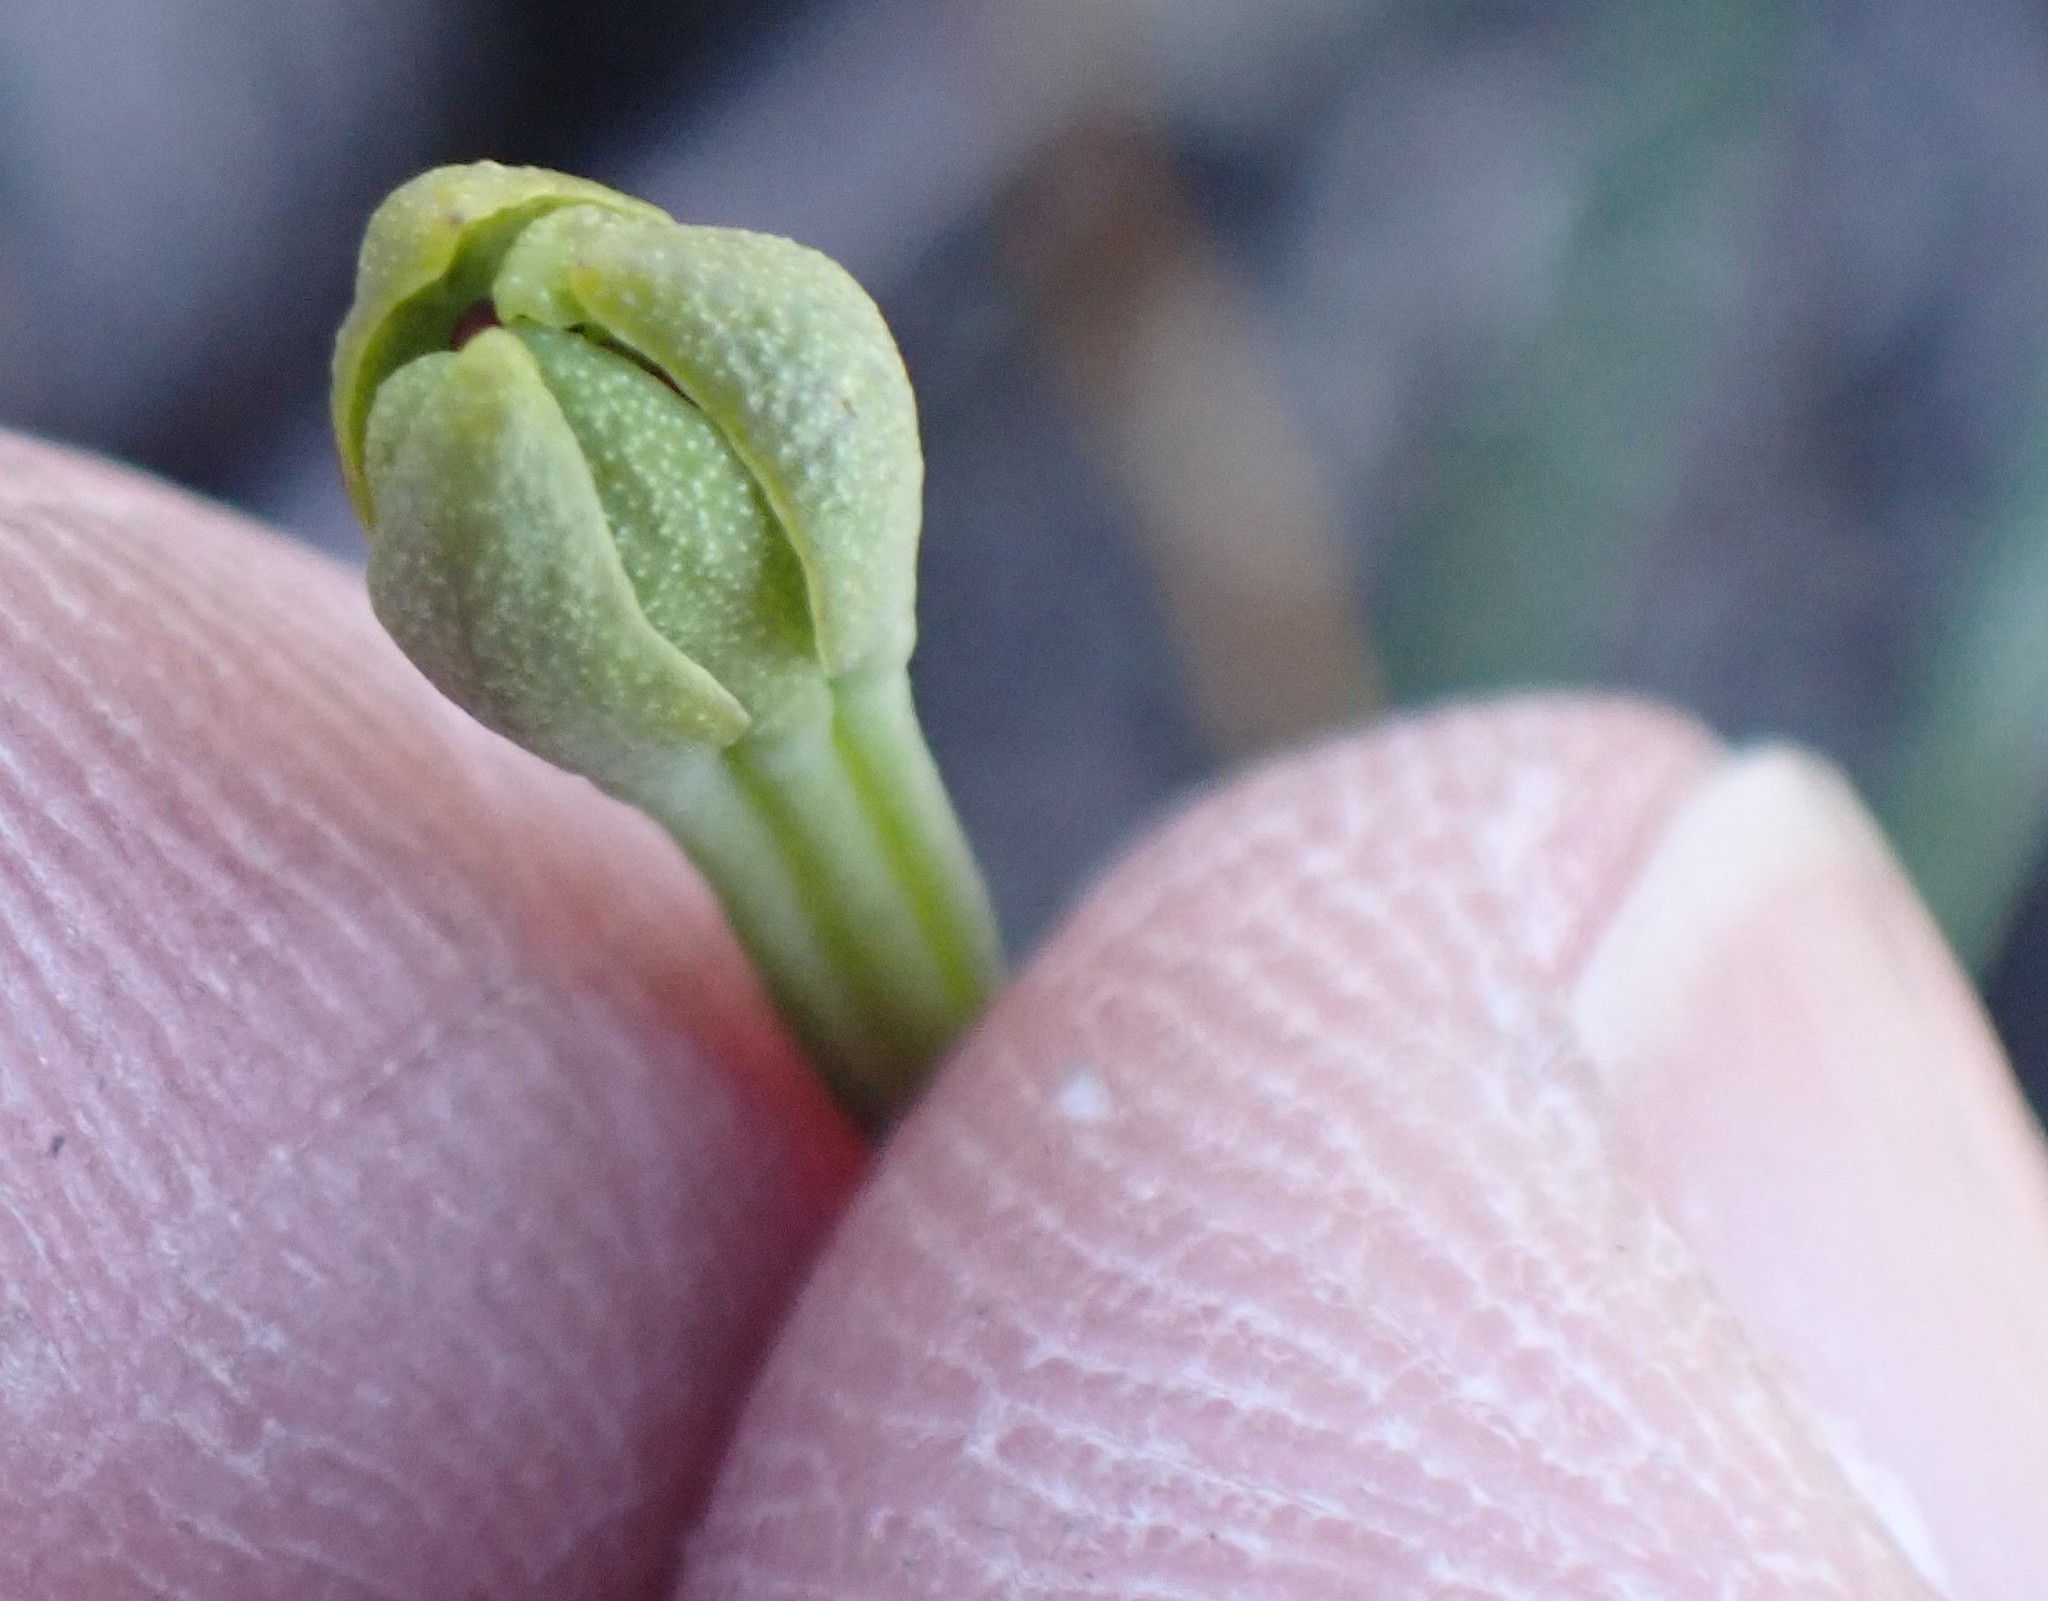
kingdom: Plantae
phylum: Tracheophyta
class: Liliopsida
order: Liliales
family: Campynemataceae
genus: Campynema
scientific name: Campynema lineare
